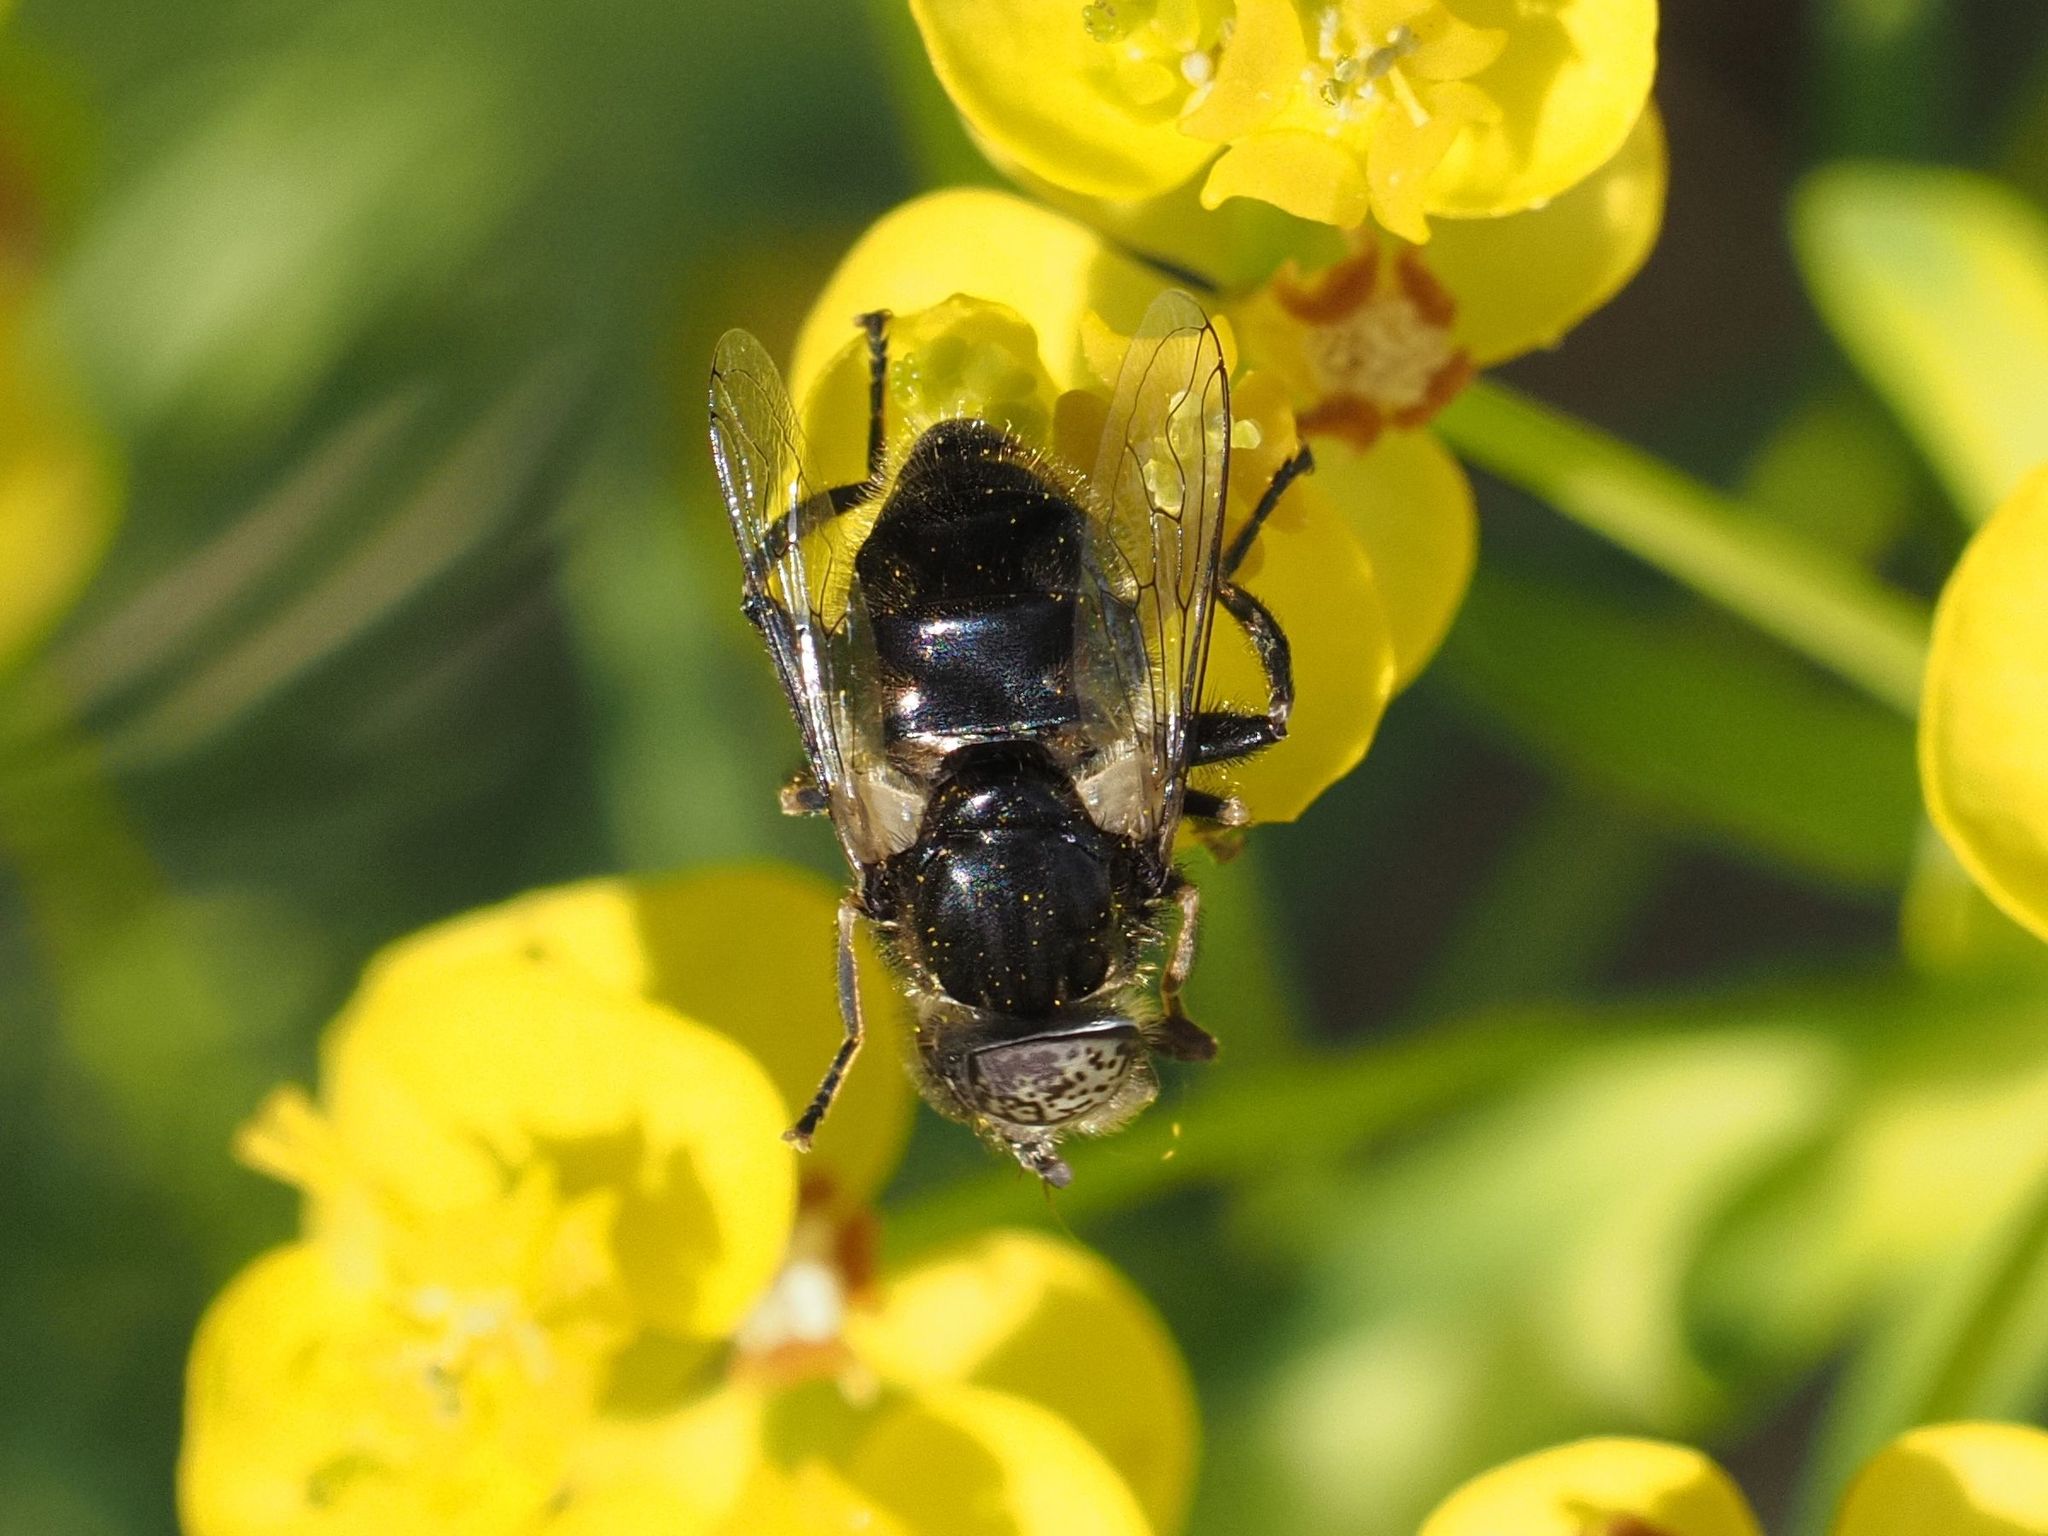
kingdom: Animalia
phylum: Arthropoda
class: Insecta
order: Diptera
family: Syrphidae
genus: Eristalinus
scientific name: Eristalinus sepulchralis
